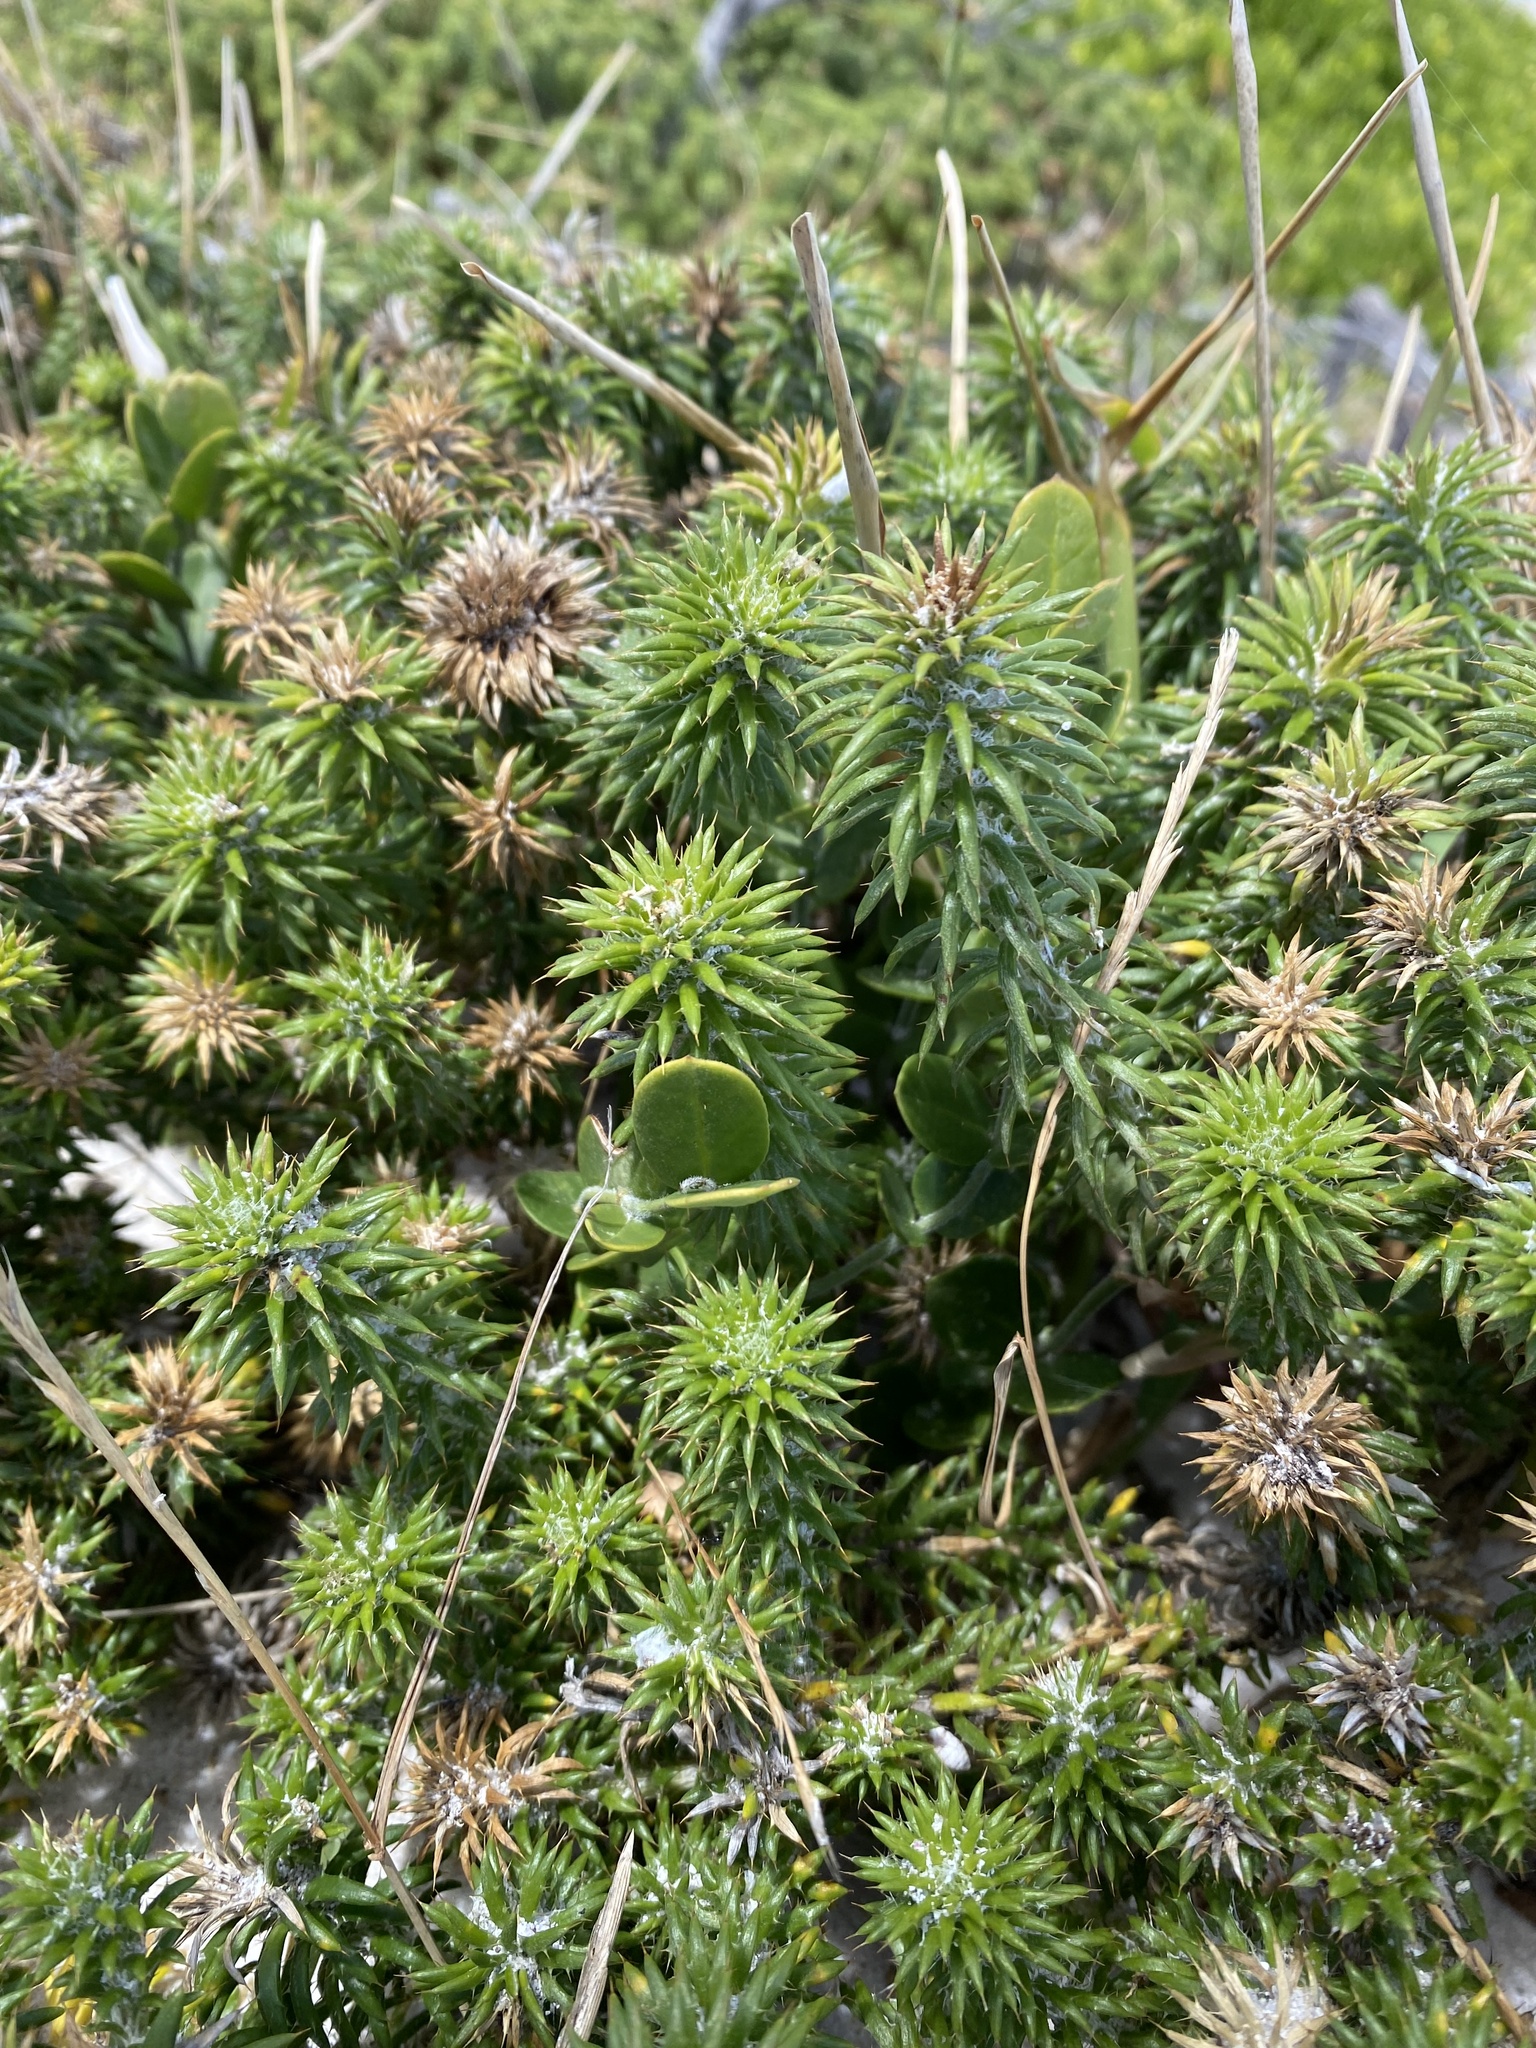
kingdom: Plantae
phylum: Tracheophyta
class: Magnoliopsida
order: Asterales
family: Asteraceae
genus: Cullumia
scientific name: Cullumia squarrosa
